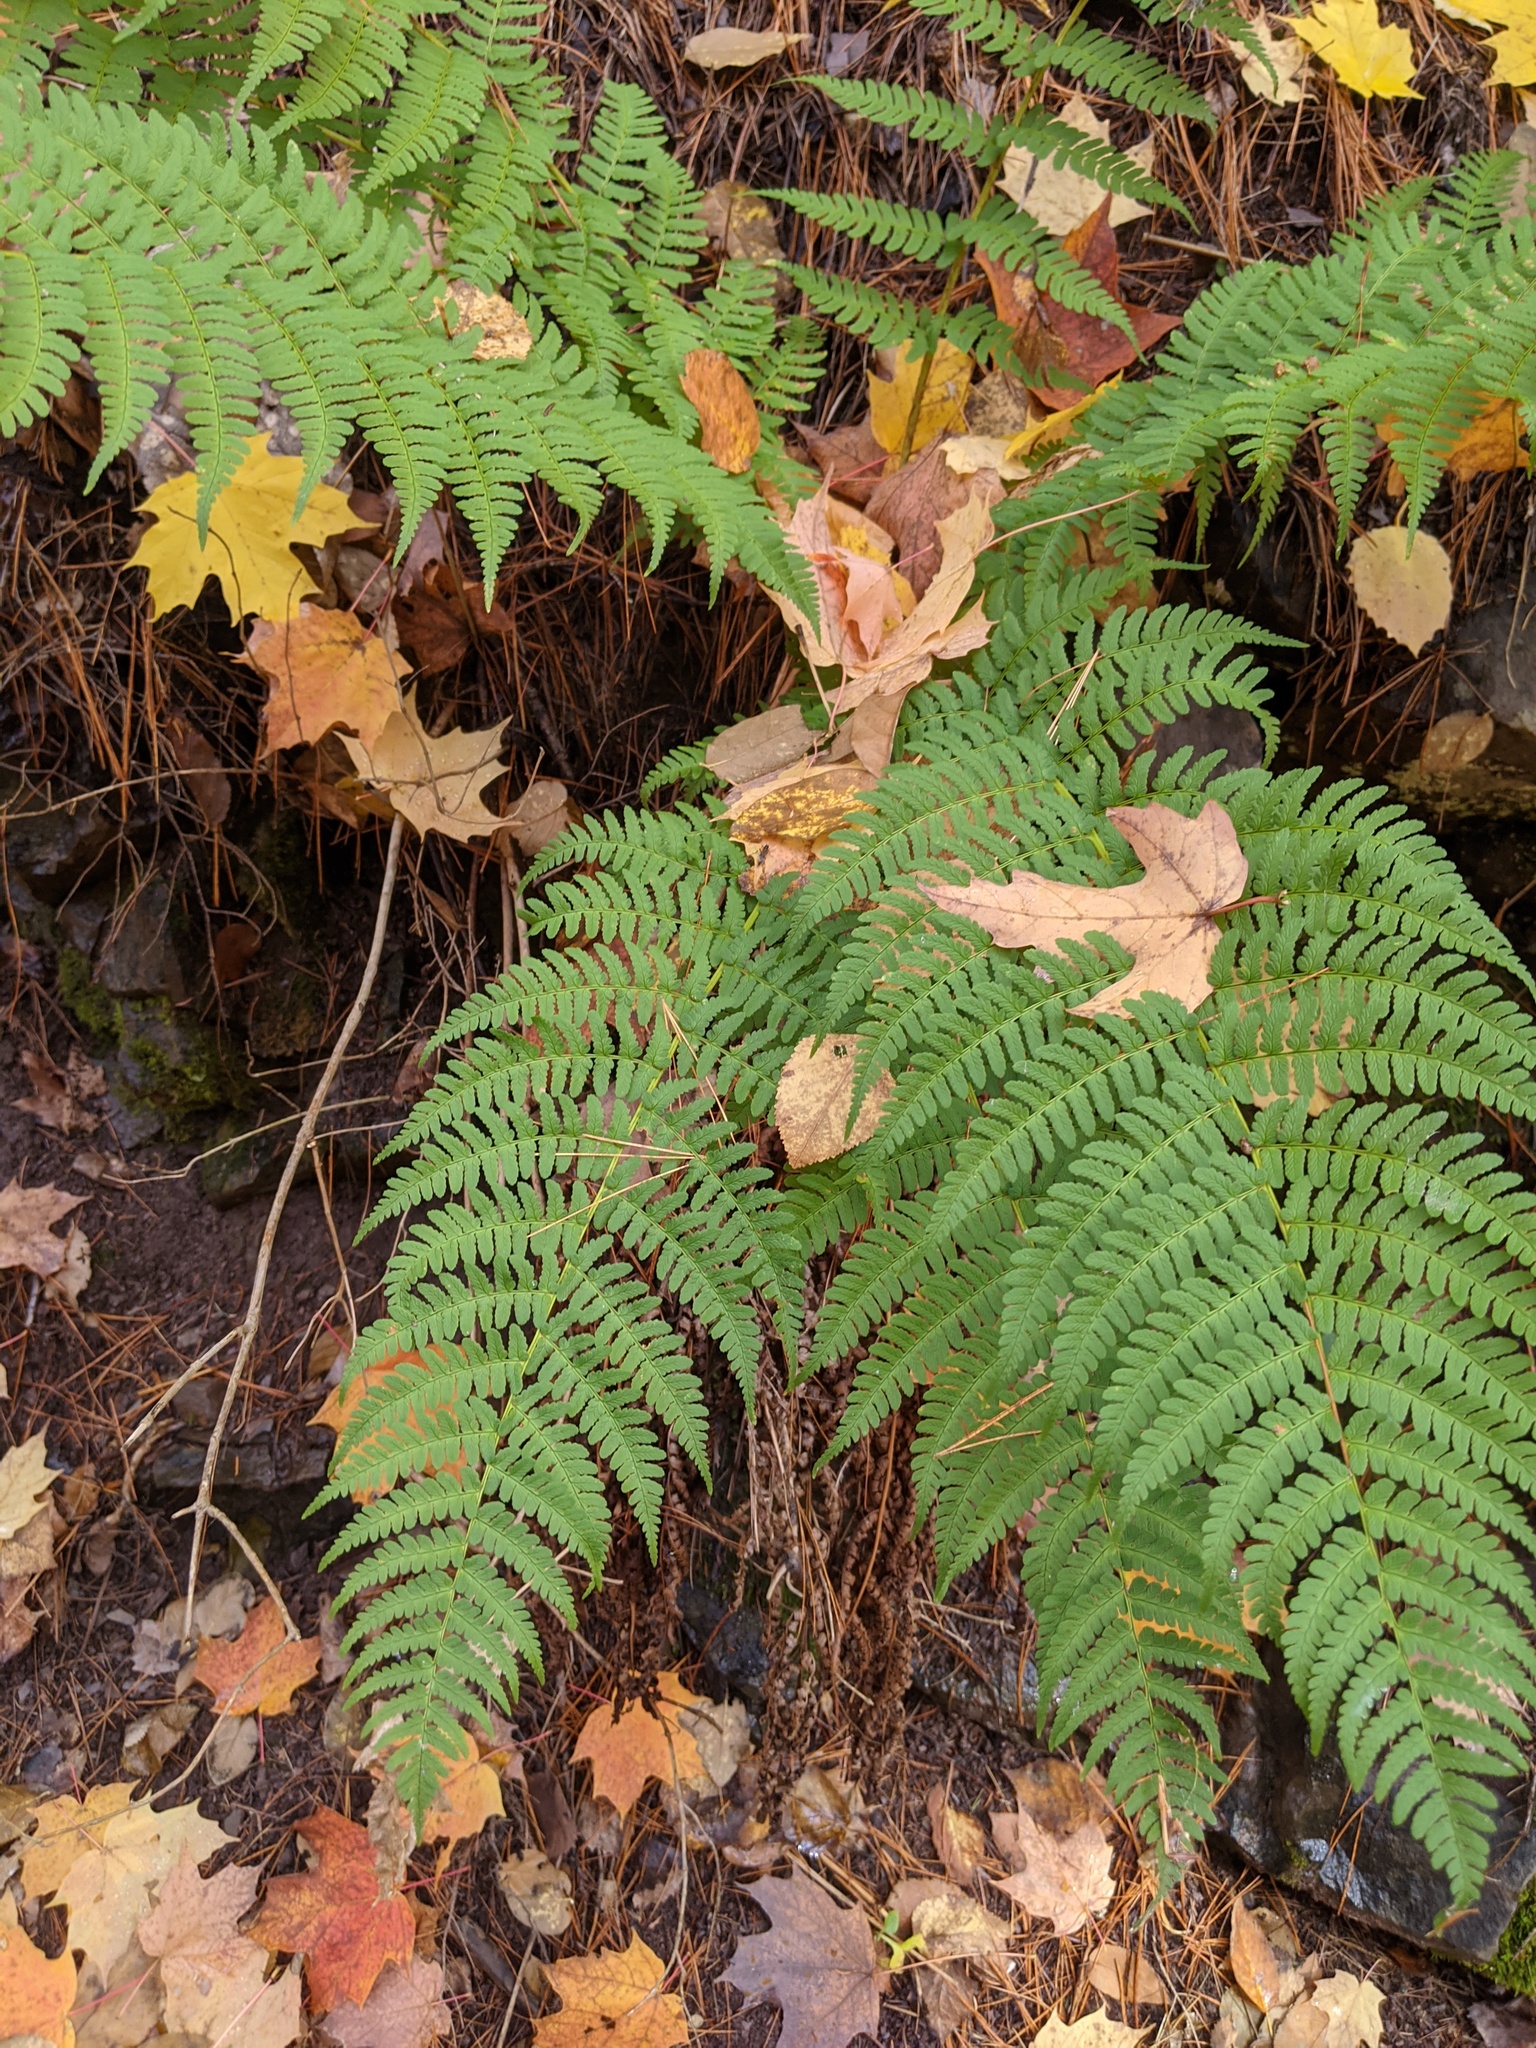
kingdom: Plantae
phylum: Tracheophyta
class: Polypodiopsida
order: Polypodiales
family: Dryopteridaceae
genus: Dryopteris
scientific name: Dryopteris marginalis
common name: Marginal wood fern
